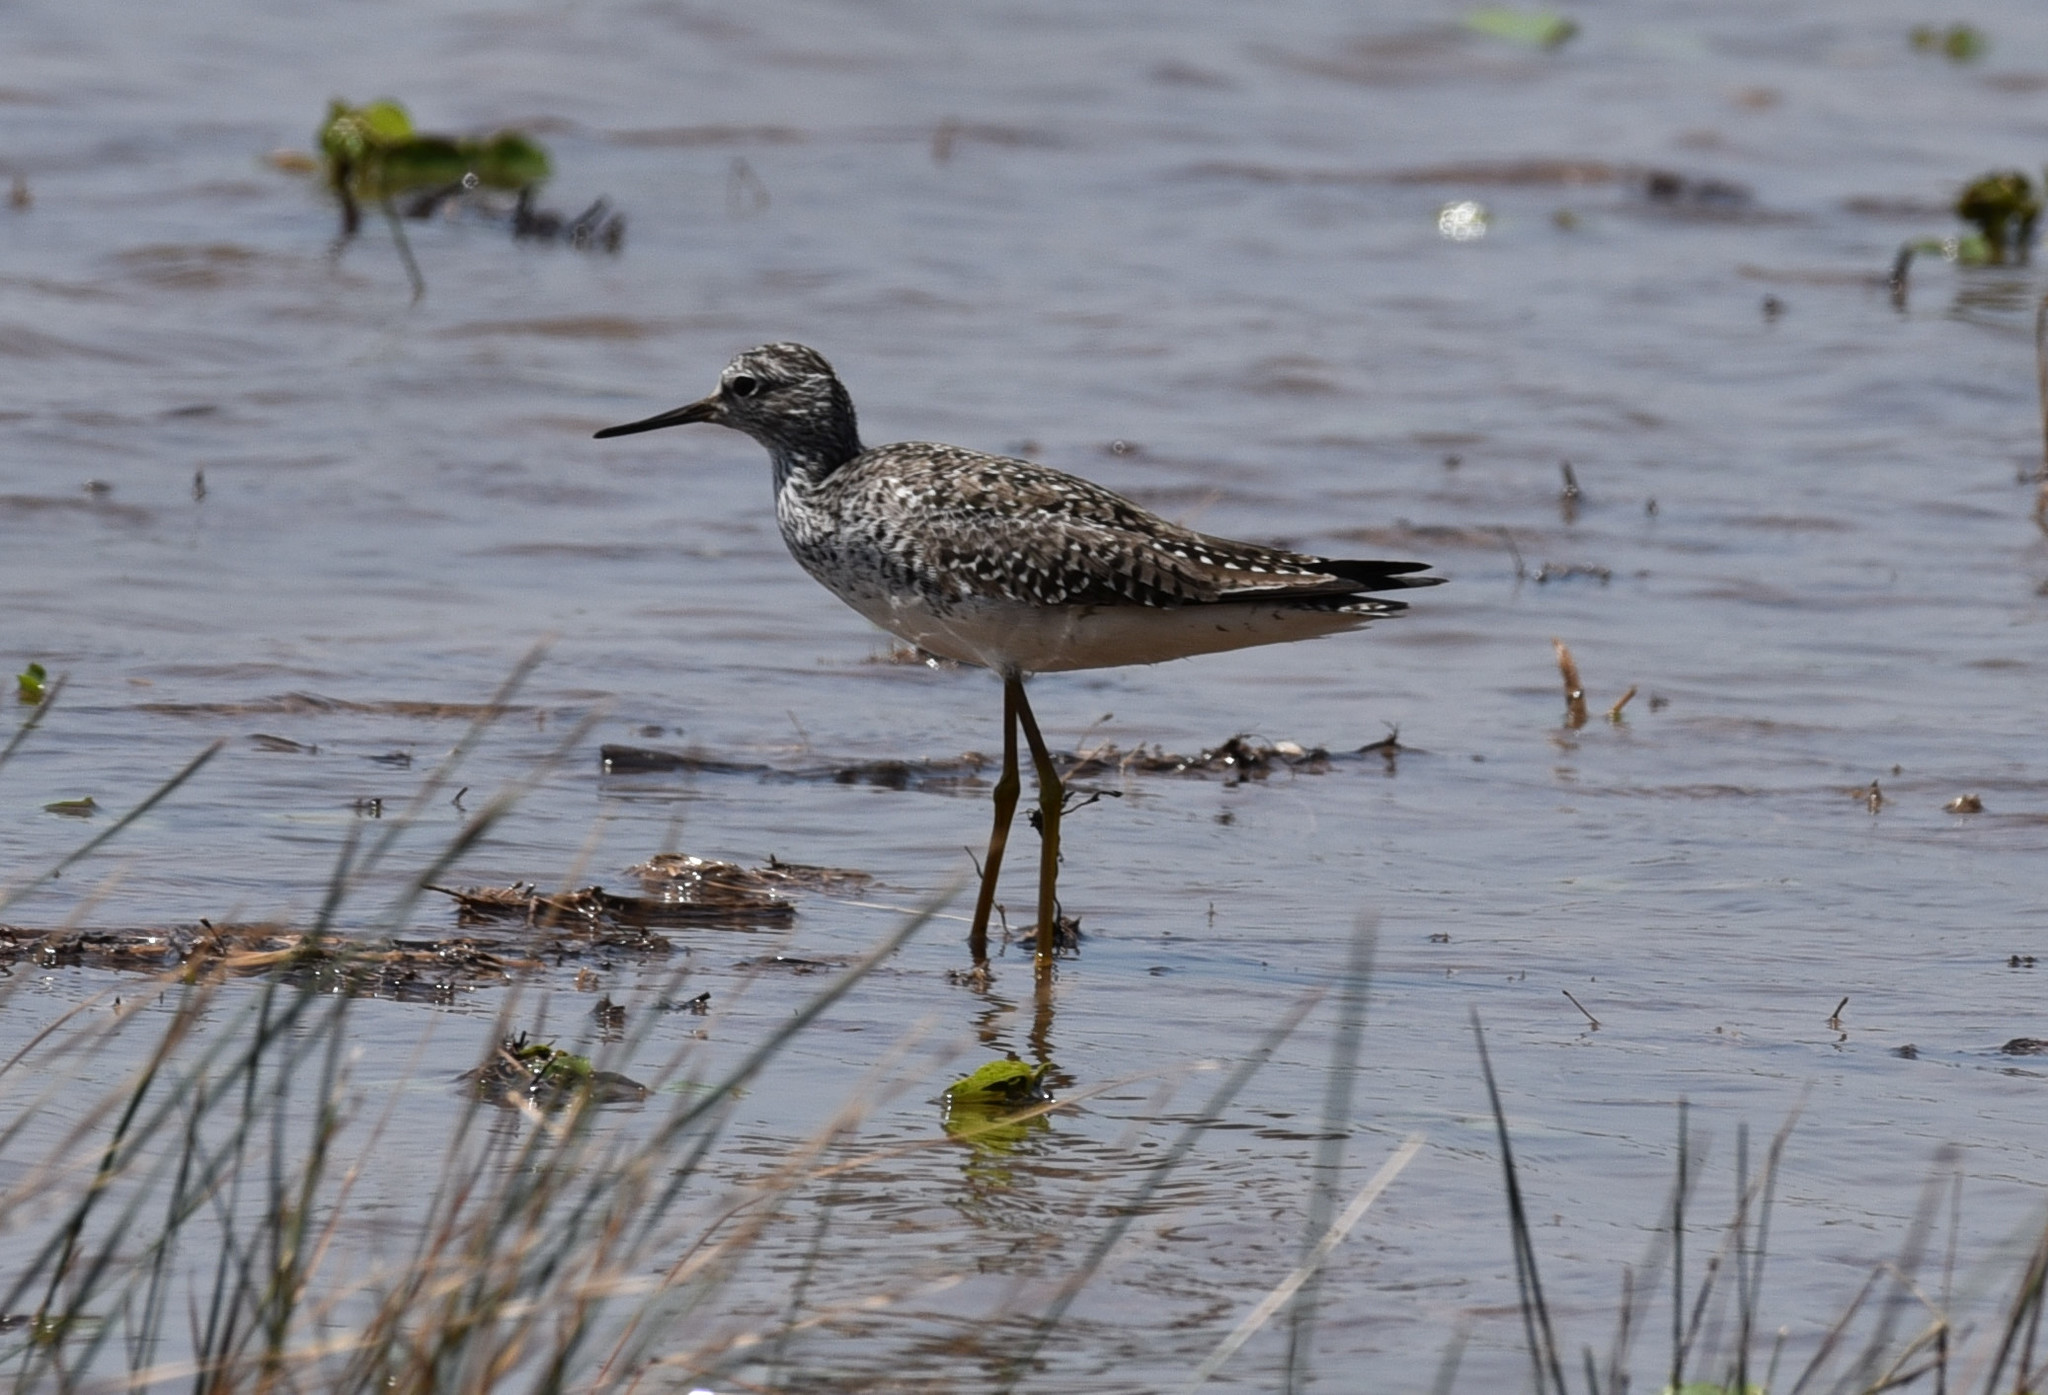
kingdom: Animalia
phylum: Chordata
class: Aves
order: Charadriiformes
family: Scolopacidae
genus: Tringa
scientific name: Tringa flavipes
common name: Lesser yellowlegs
